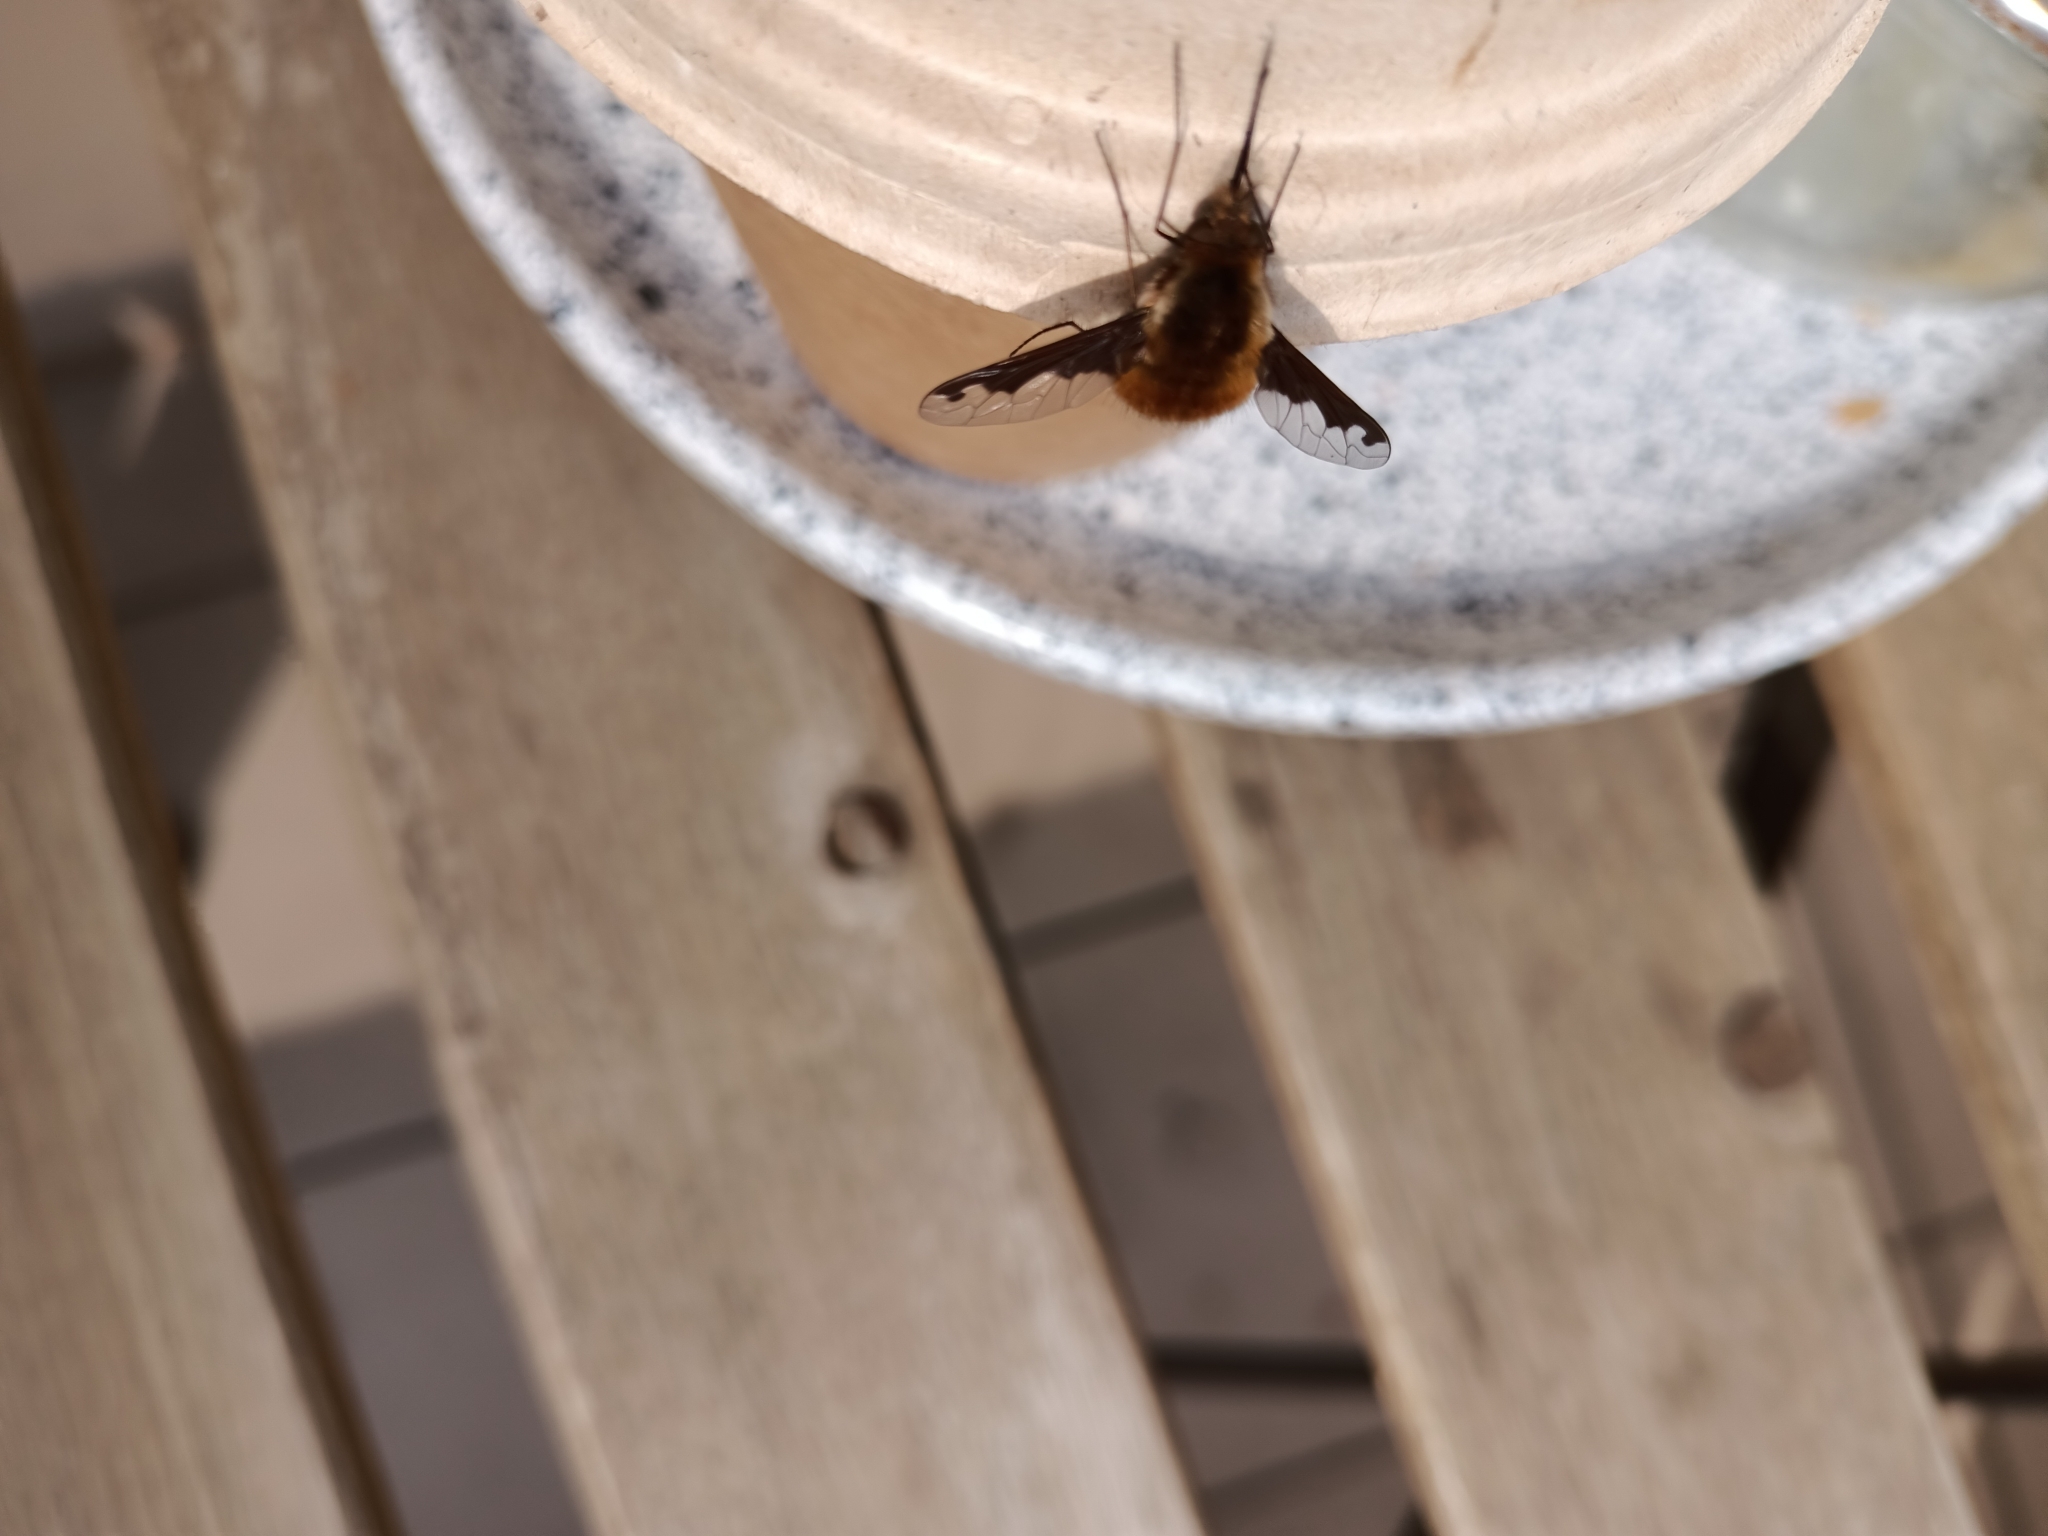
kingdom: Animalia
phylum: Arthropoda
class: Insecta
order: Diptera
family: Bombyliidae
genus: Bombylius
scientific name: Bombylius major
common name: Bee fly
